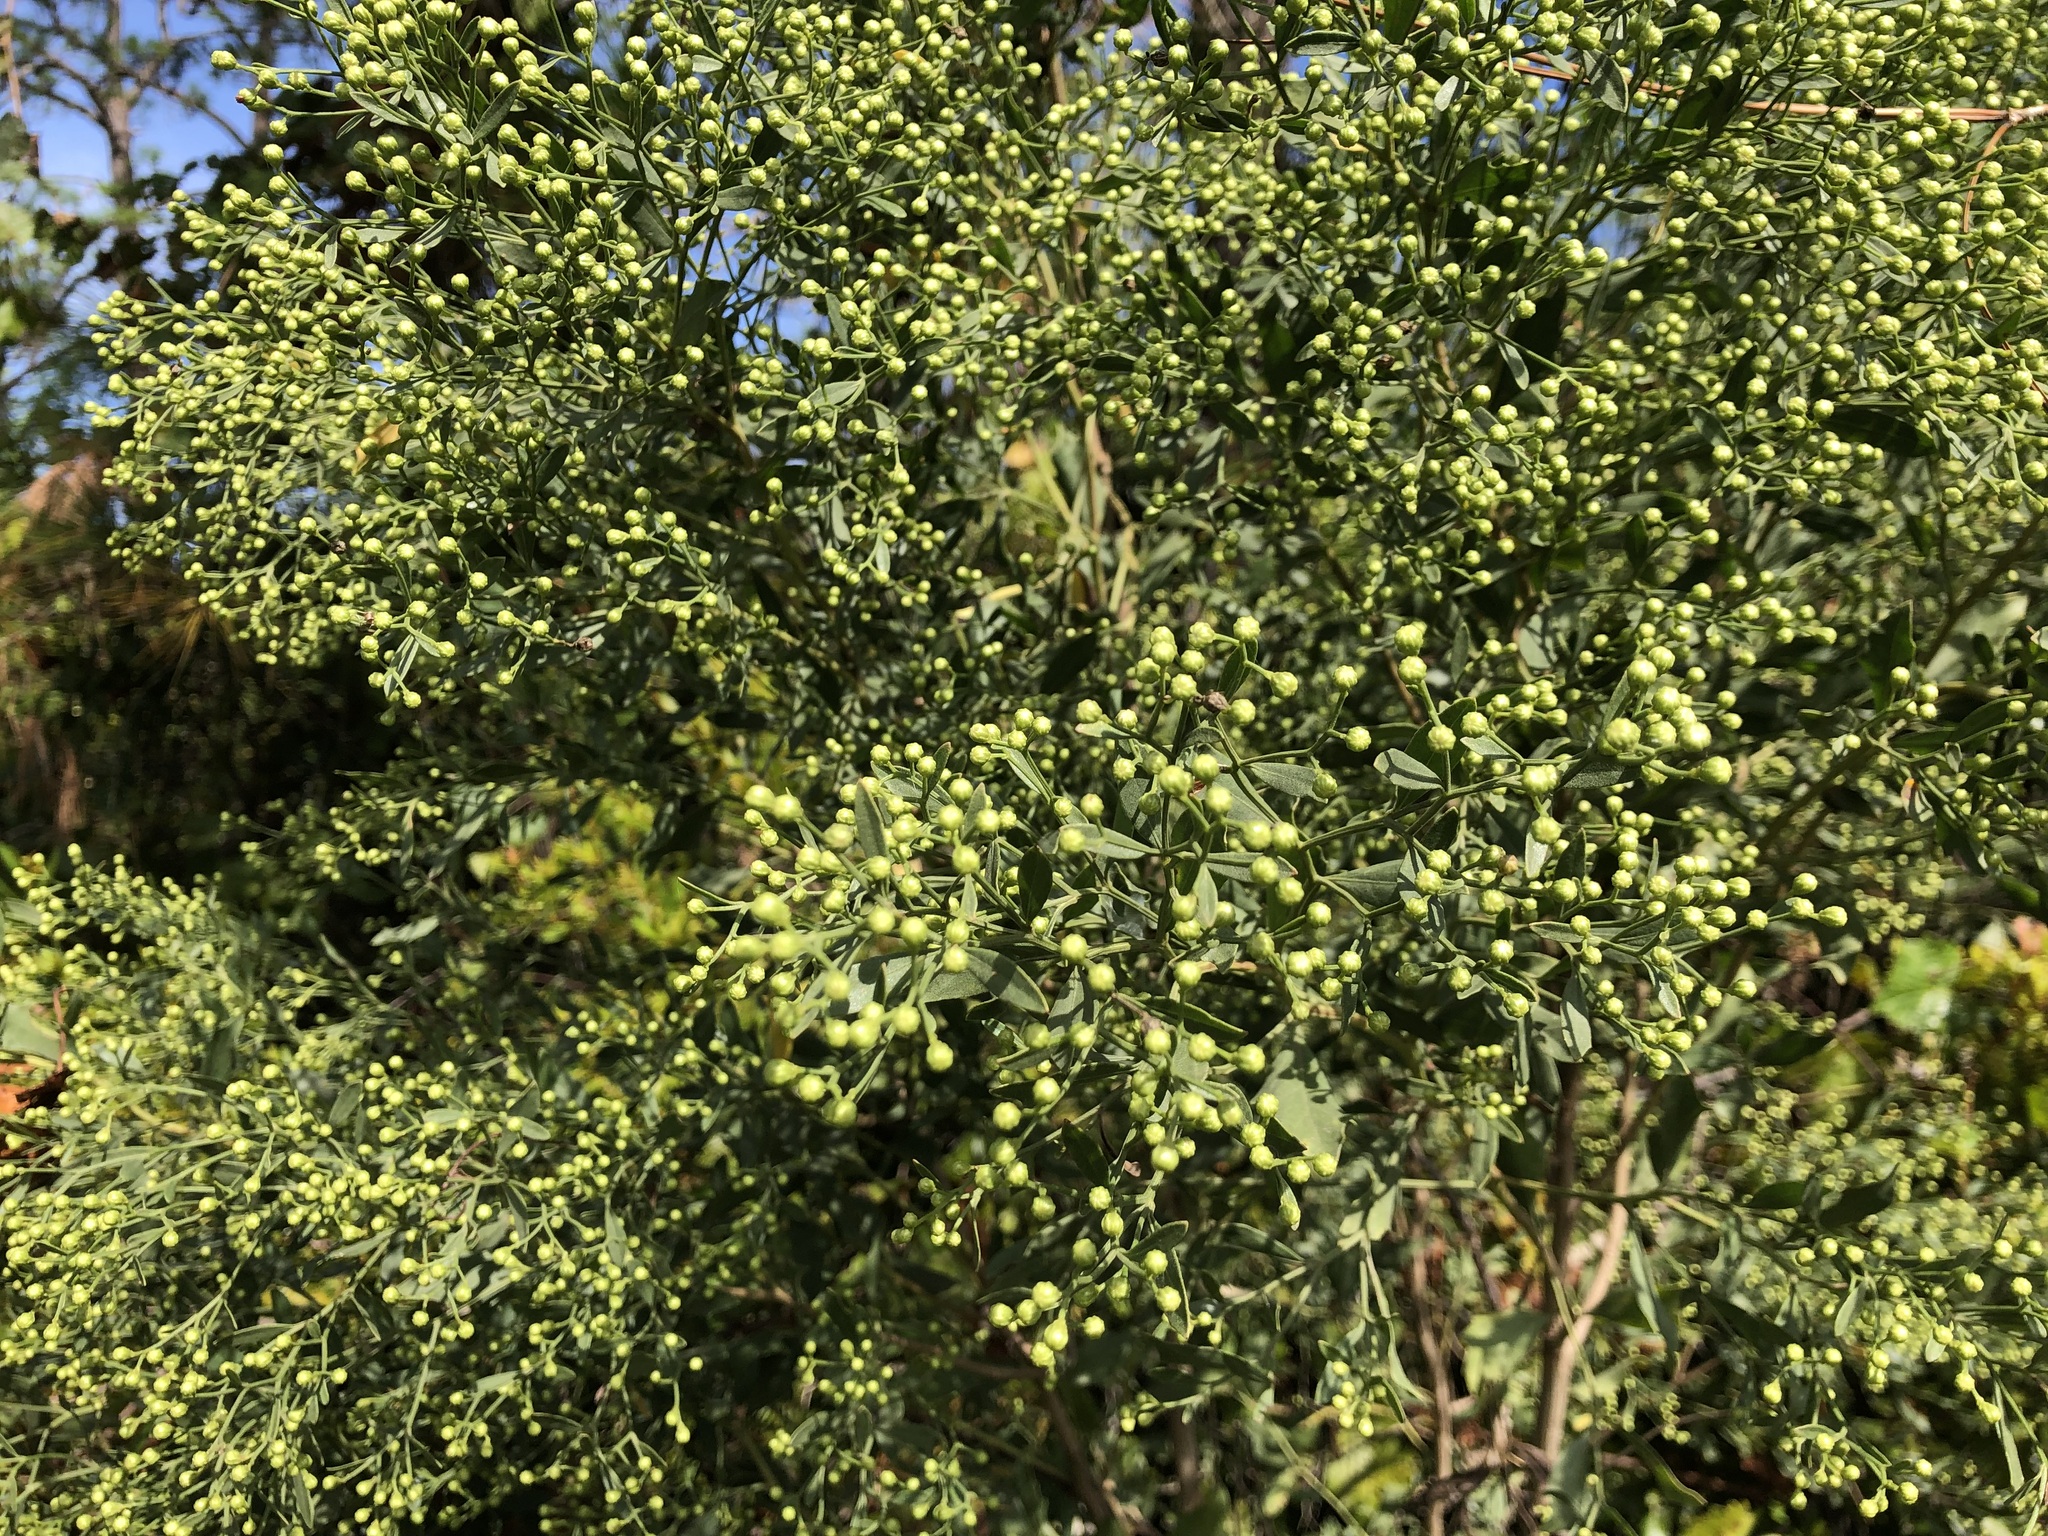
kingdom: Plantae
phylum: Tracheophyta
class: Magnoliopsida
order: Asterales
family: Asteraceae
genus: Baccharis
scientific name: Baccharis halimifolia
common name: Eastern baccharis
